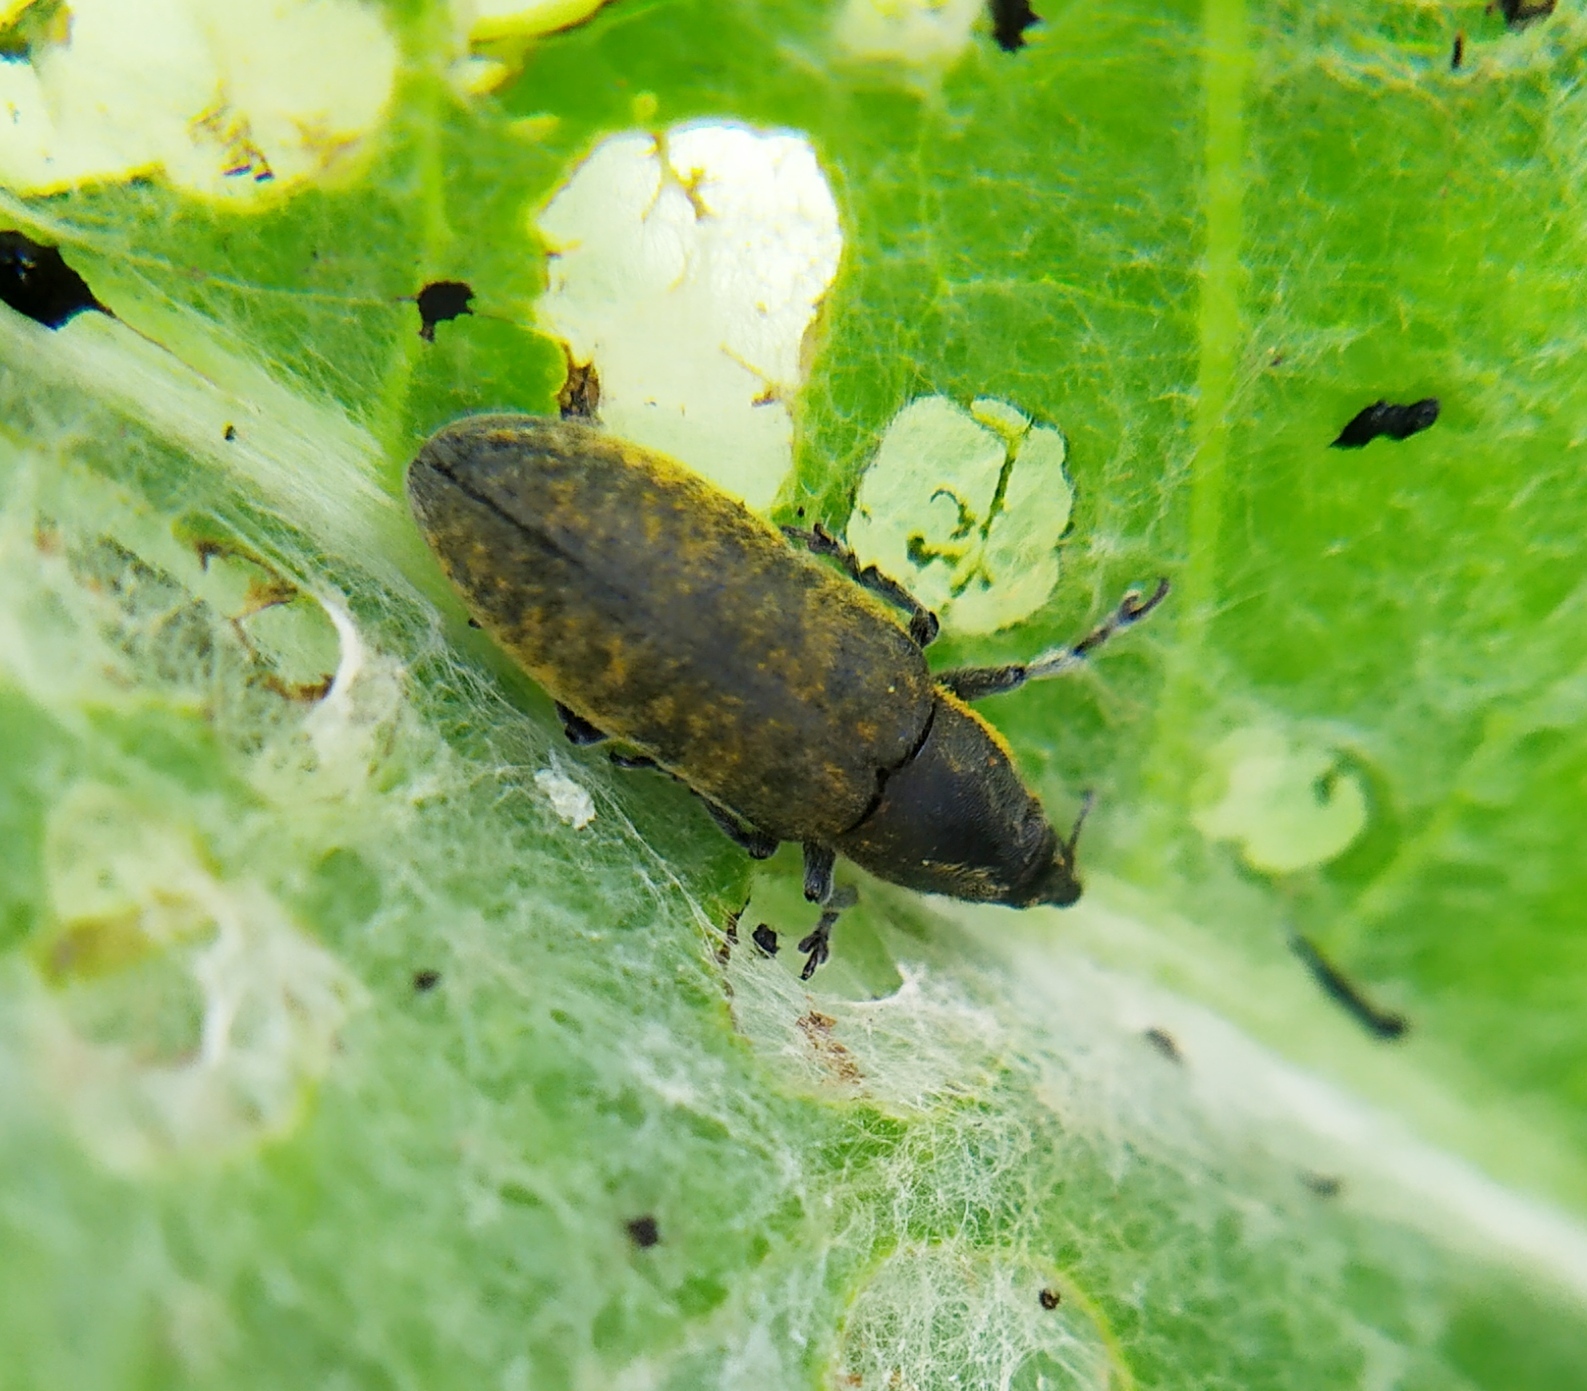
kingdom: Animalia
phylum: Arthropoda
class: Insecta
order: Coleoptera
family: Curculionidae
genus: Lixus
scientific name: Lixus cardui
